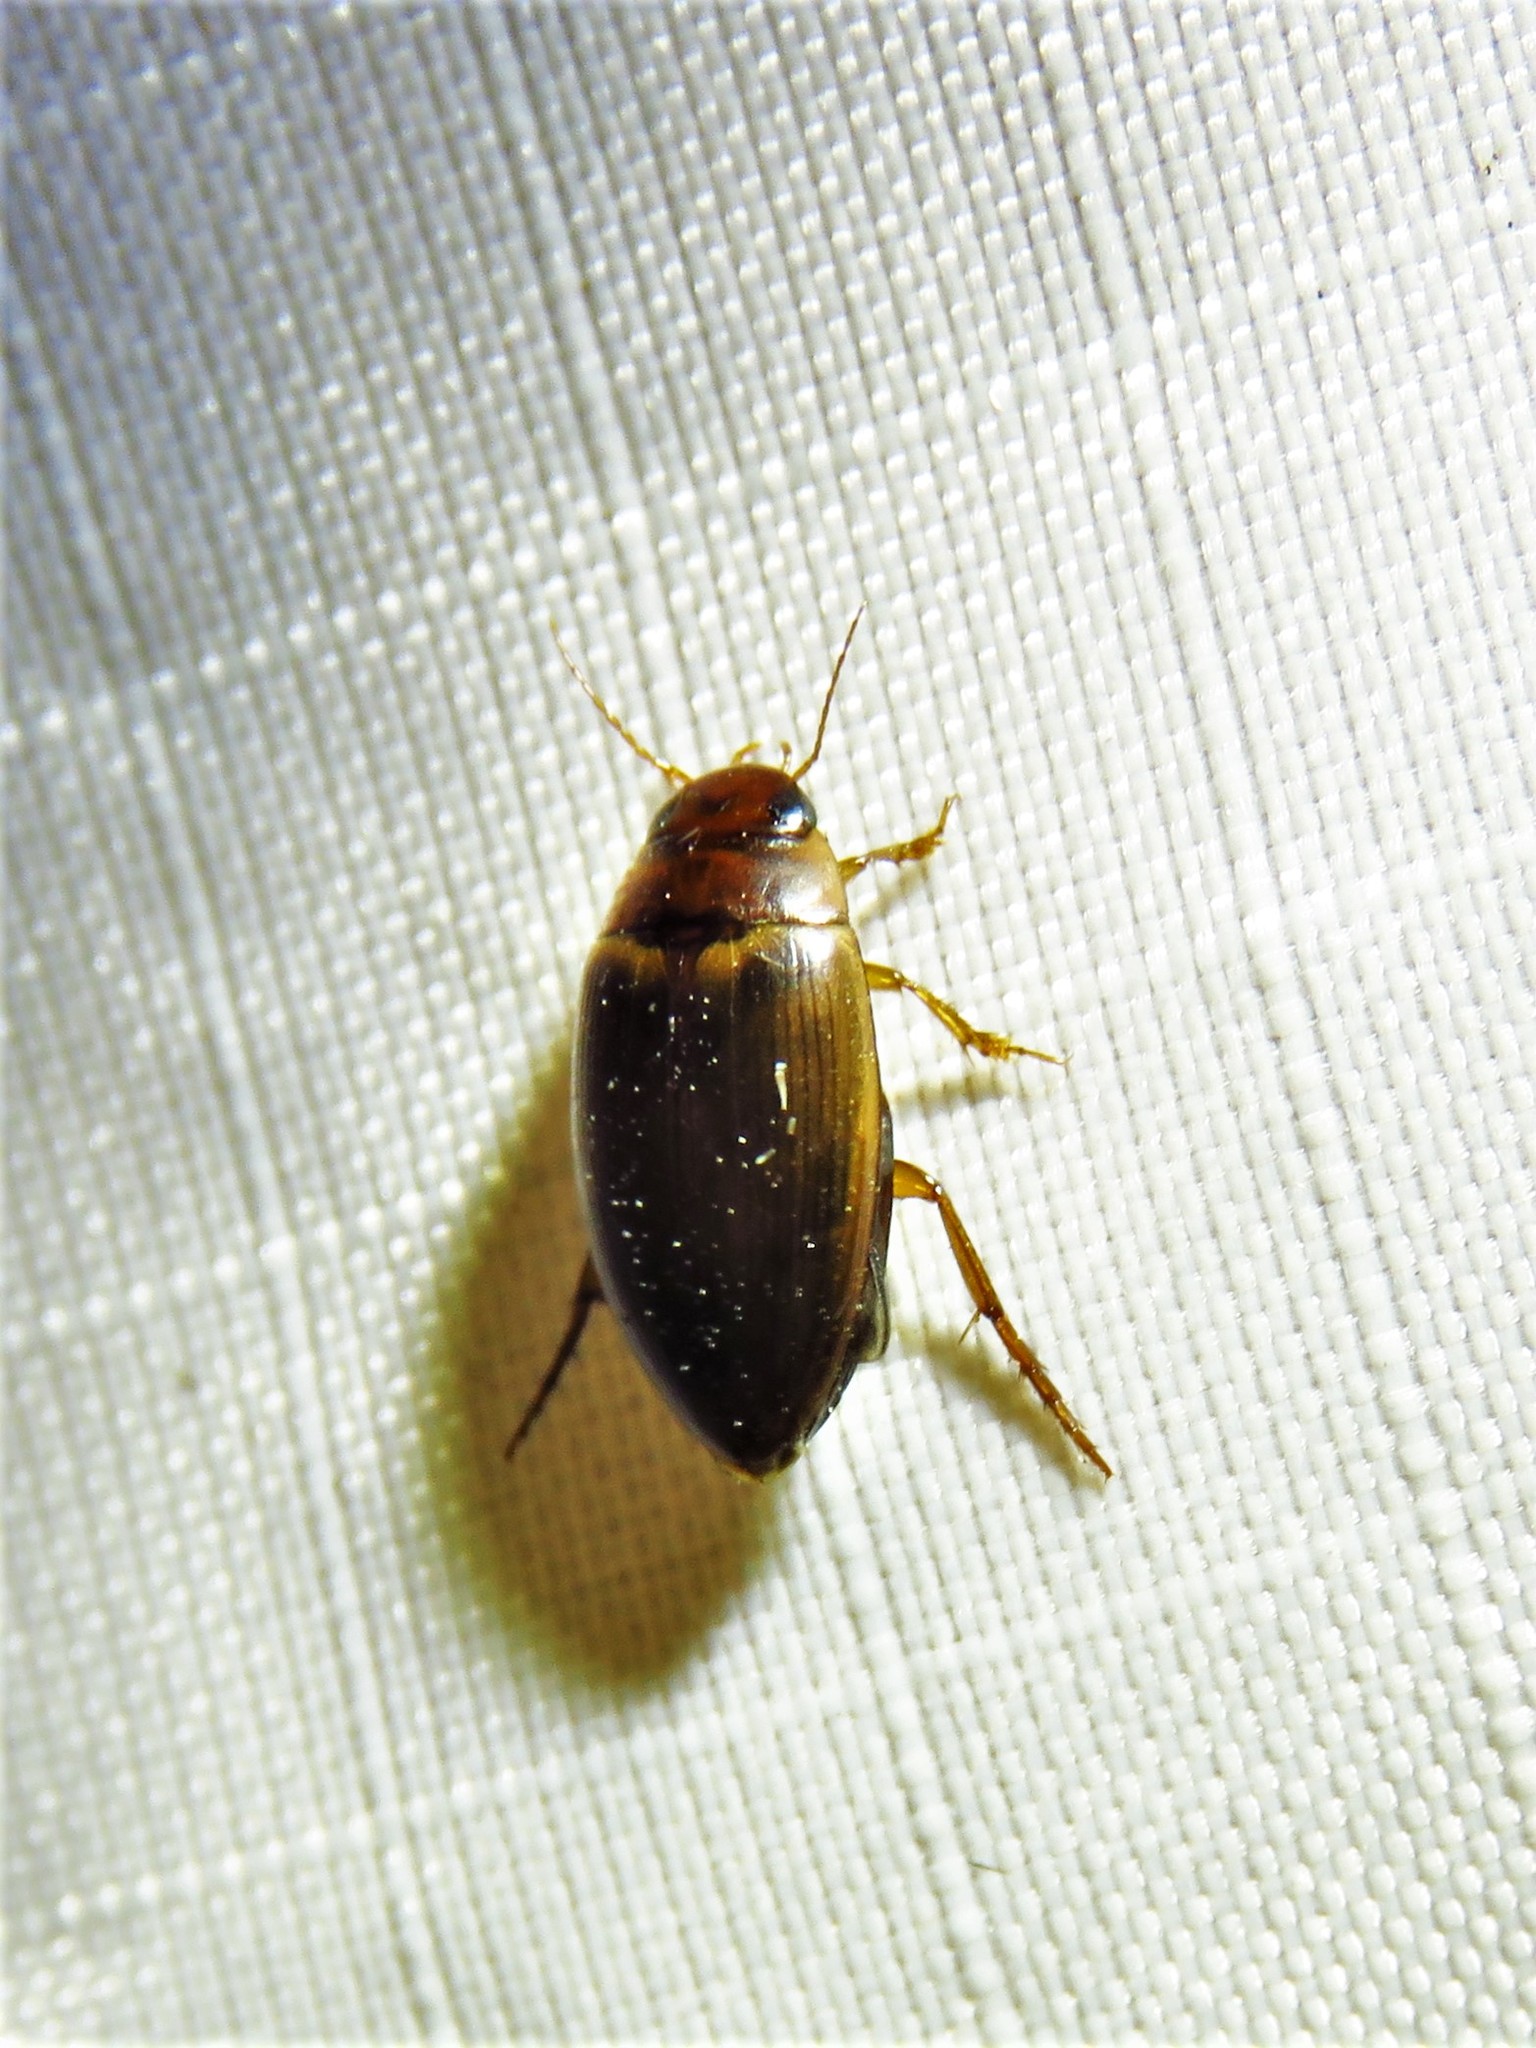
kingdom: Animalia
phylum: Arthropoda
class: Insecta
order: Coleoptera
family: Dytiscidae
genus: Copelatus
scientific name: Copelatus chevrolati
